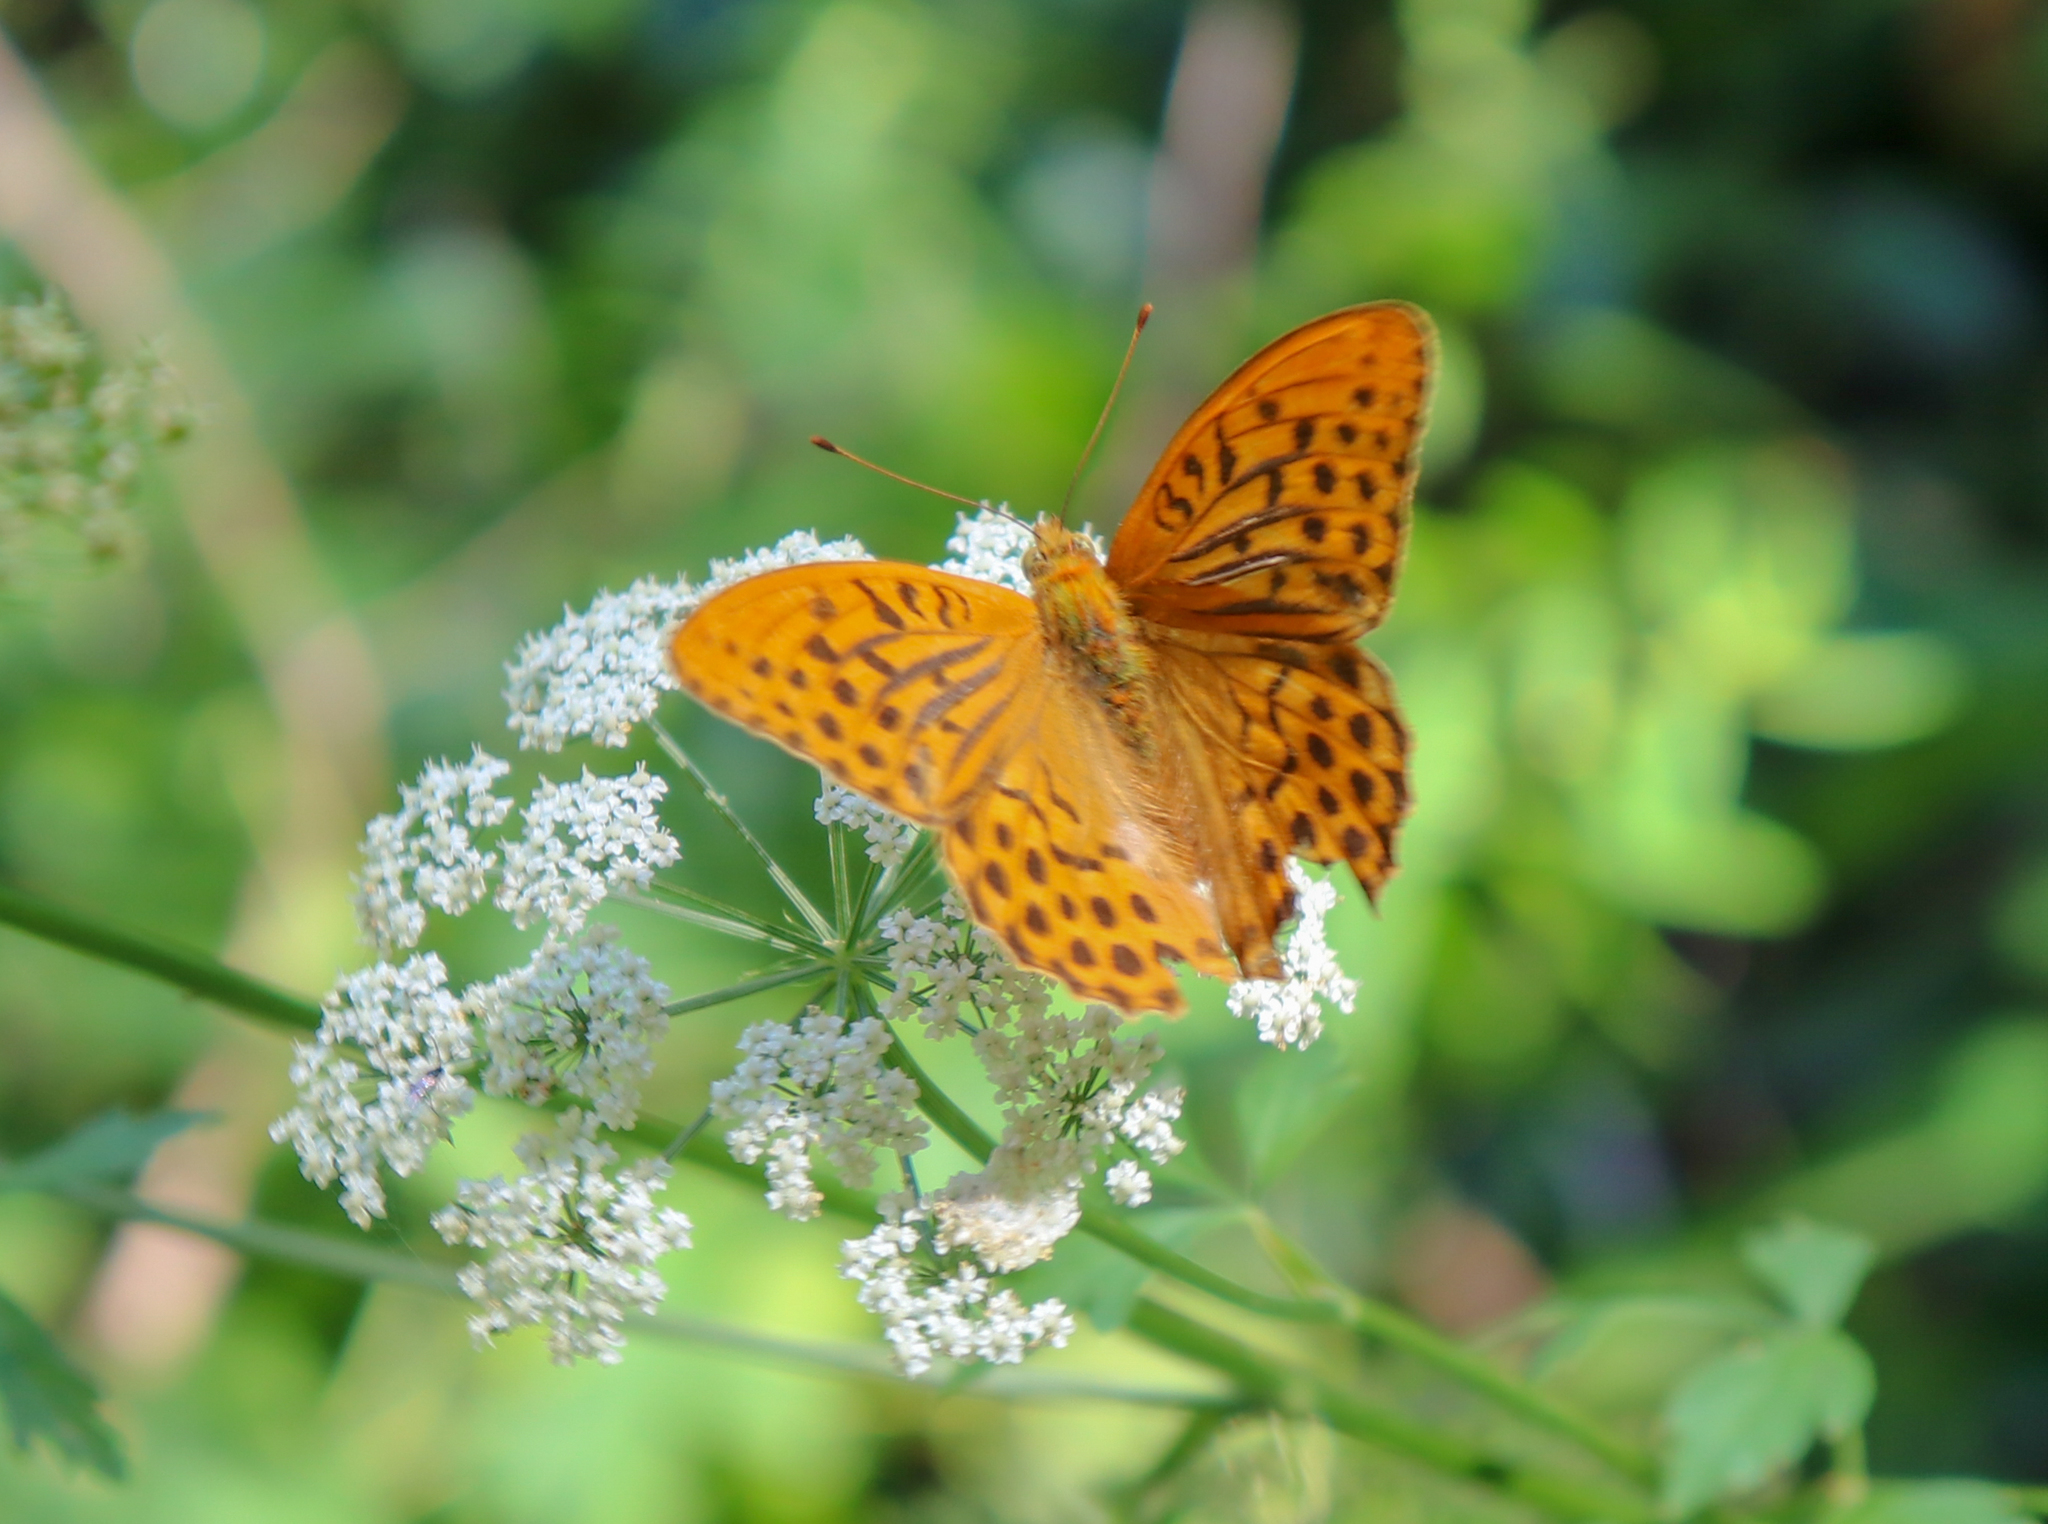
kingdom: Animalia
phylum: Arthropoda
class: Insecta
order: Lepidoptera
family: Nymphalidae
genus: Argynnis
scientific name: Argynnis paphia
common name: Silver-washed fritillary
